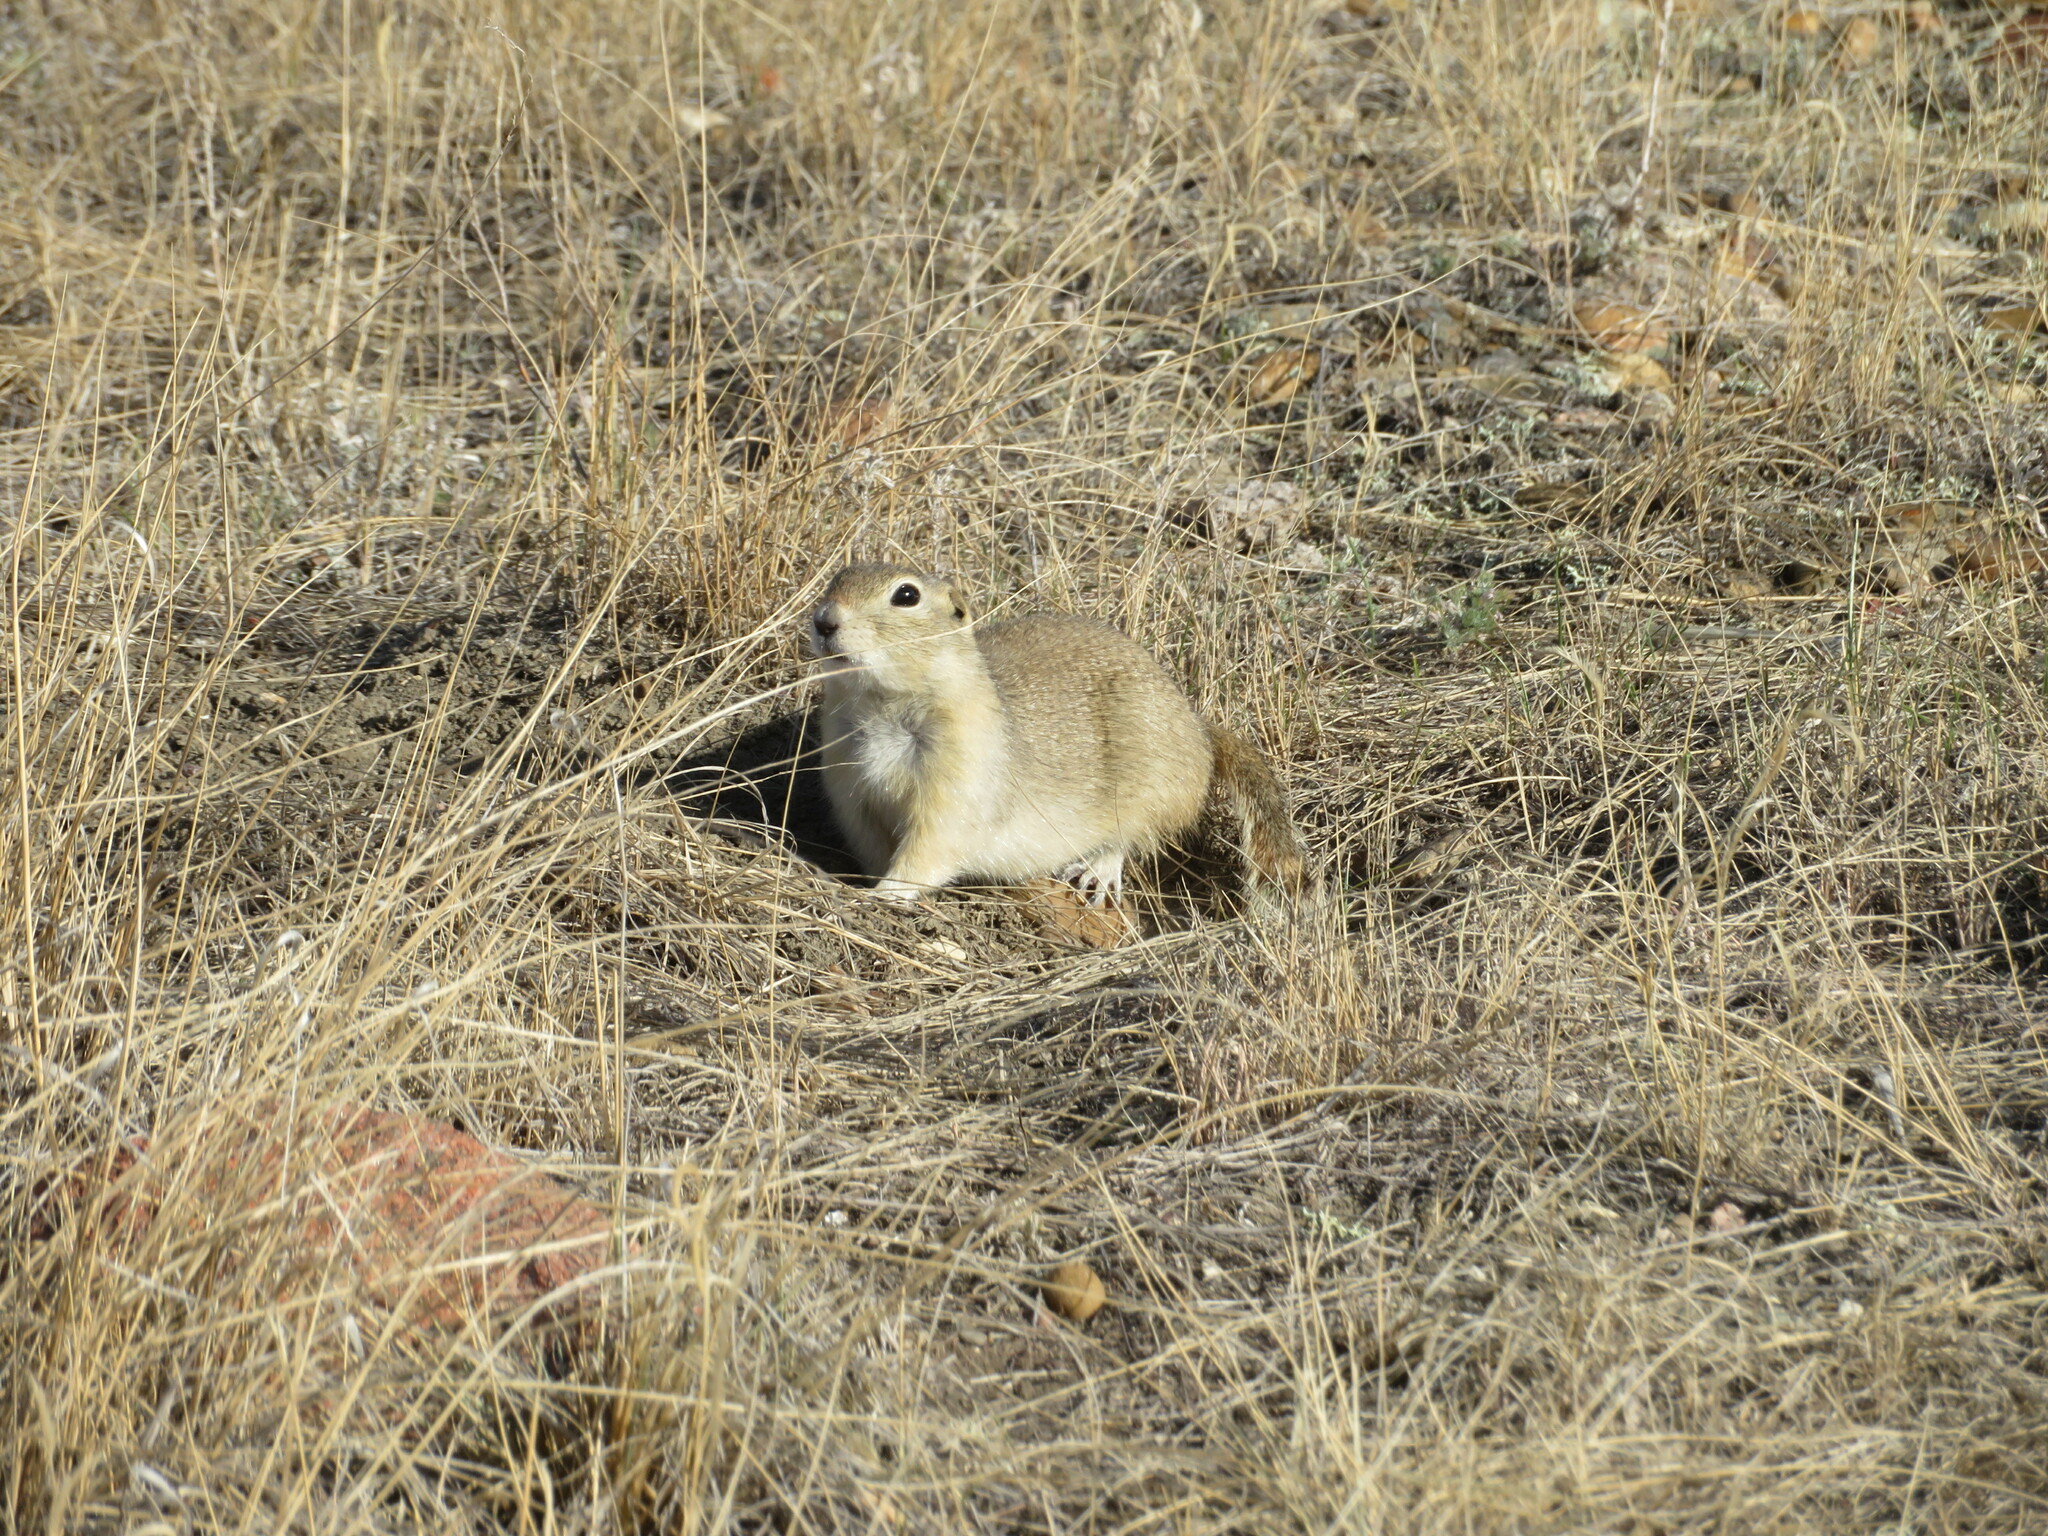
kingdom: Animalia
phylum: Chordata
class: Mammalia
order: Rodentia
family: Sciuridae
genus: Urocitellus
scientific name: Urocitellus richardsonii
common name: Richardson's ground squirrel
